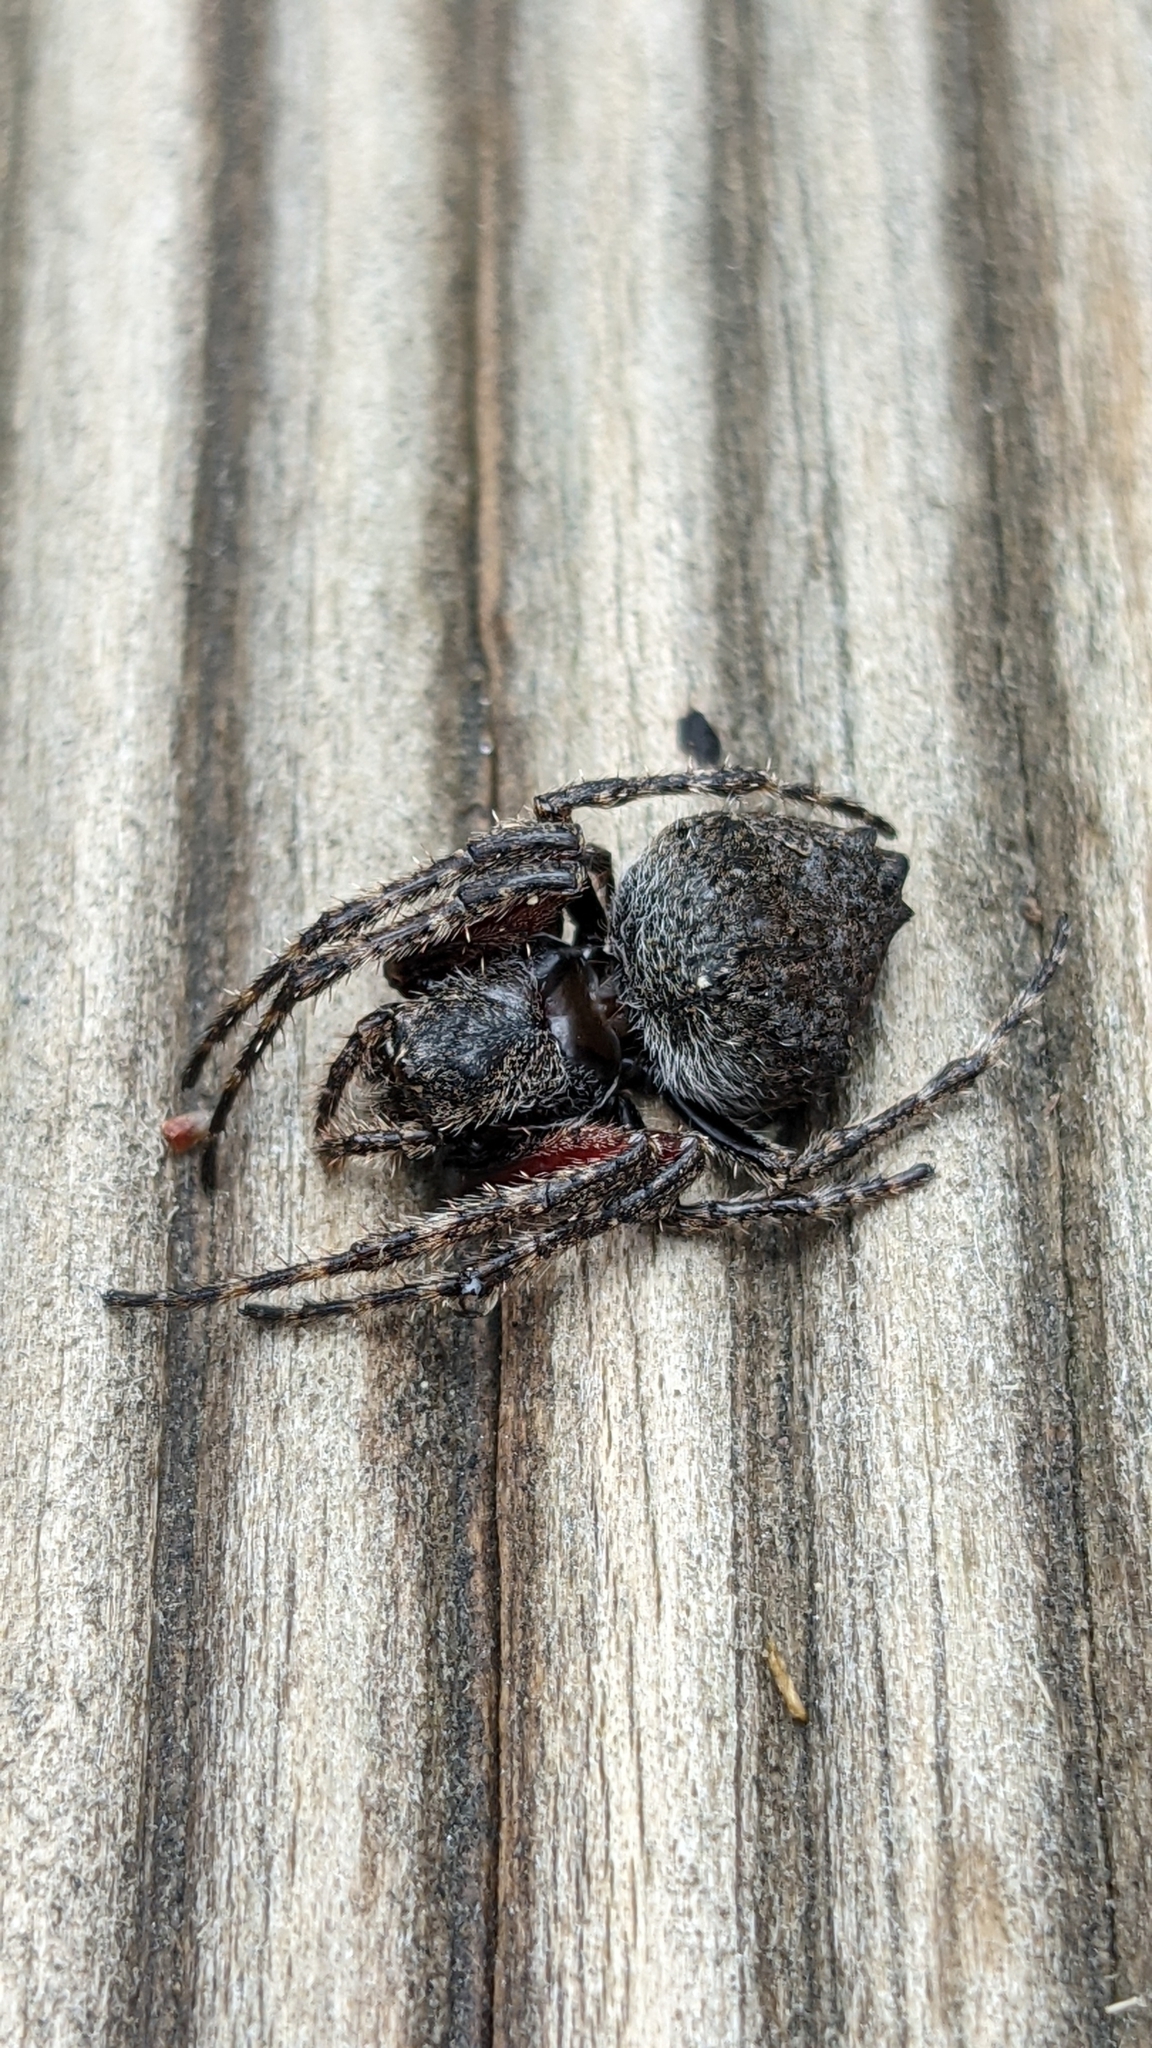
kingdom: Animalia
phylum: Arthropoda
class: Arachnida
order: Araneae
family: Araneidae
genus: Eriophora
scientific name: Eriophora pustulosa
